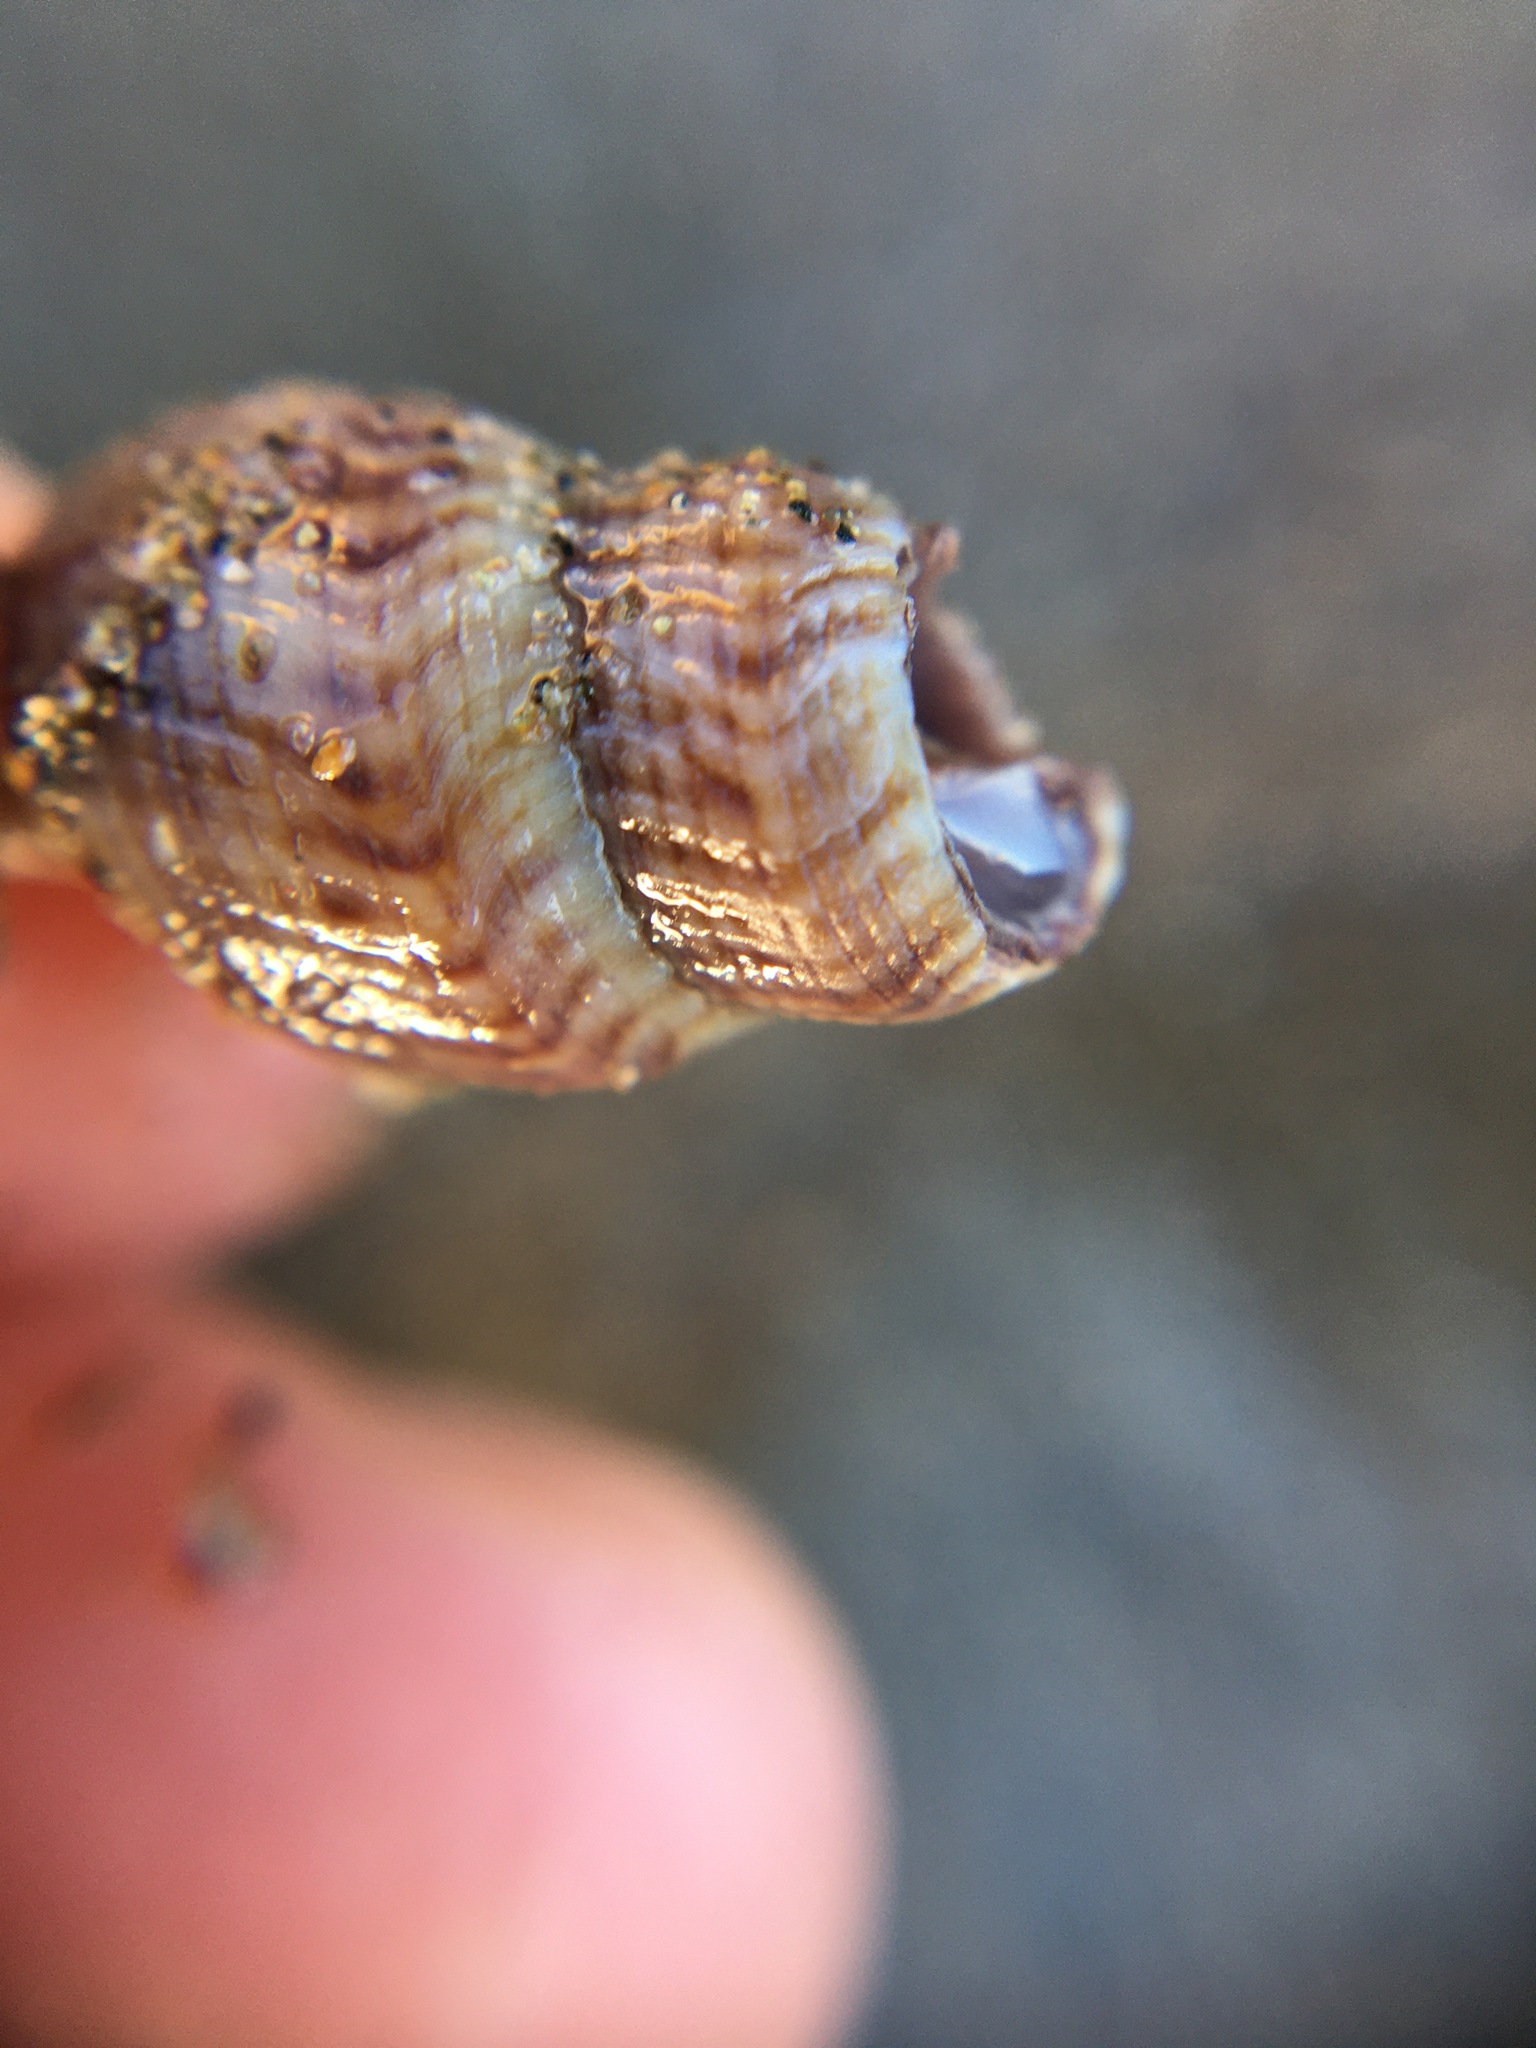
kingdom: Animalia
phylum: Mollusca
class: Gastropoda
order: Neogastropoda
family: Borsoniidae
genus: Ophiodermella
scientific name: Ophiodermella inermis
